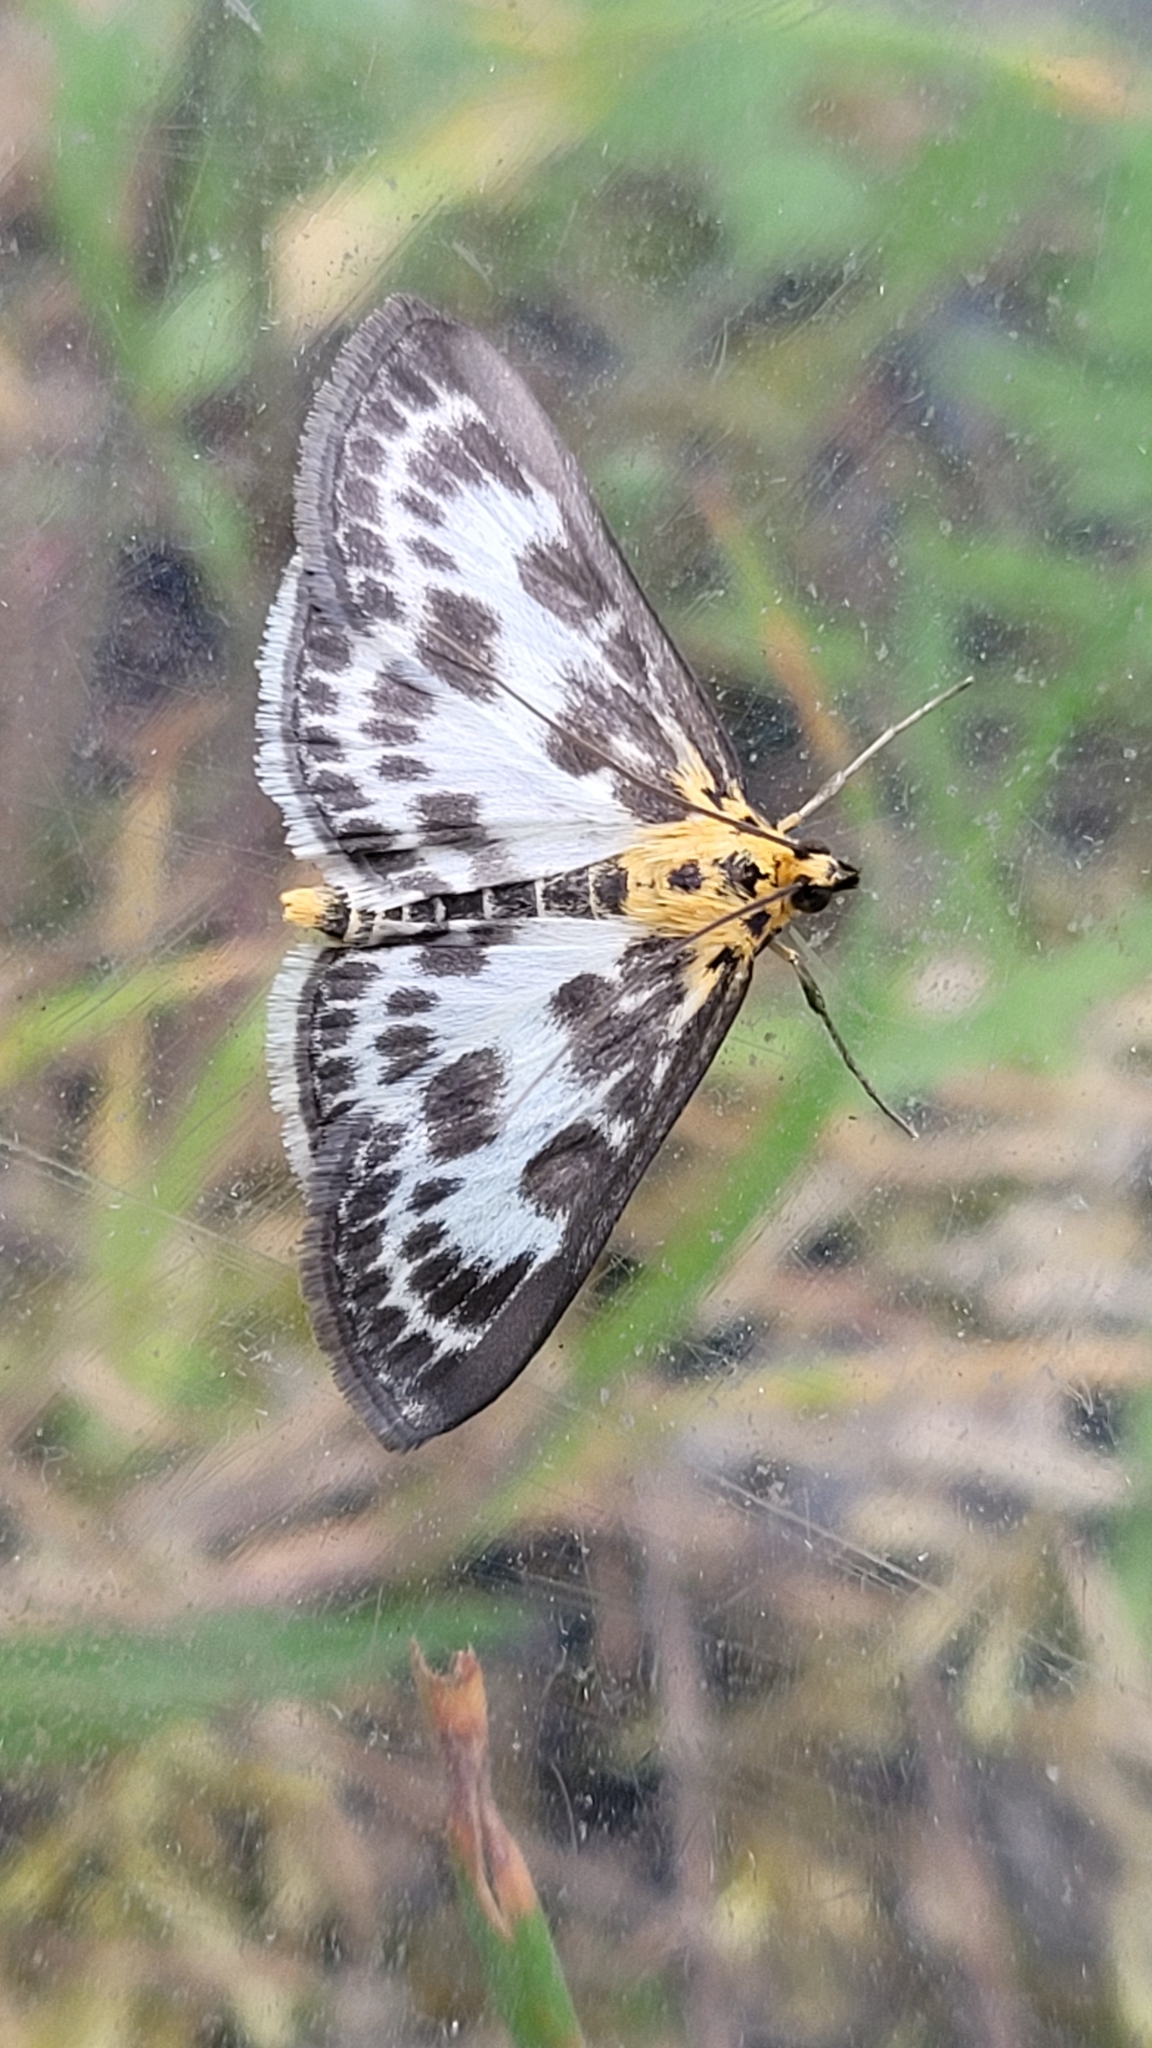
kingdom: Animalia
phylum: Arthropoda
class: Insecta
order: Lepidoptera
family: Crambidae
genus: Anania
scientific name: Anania hortulata
